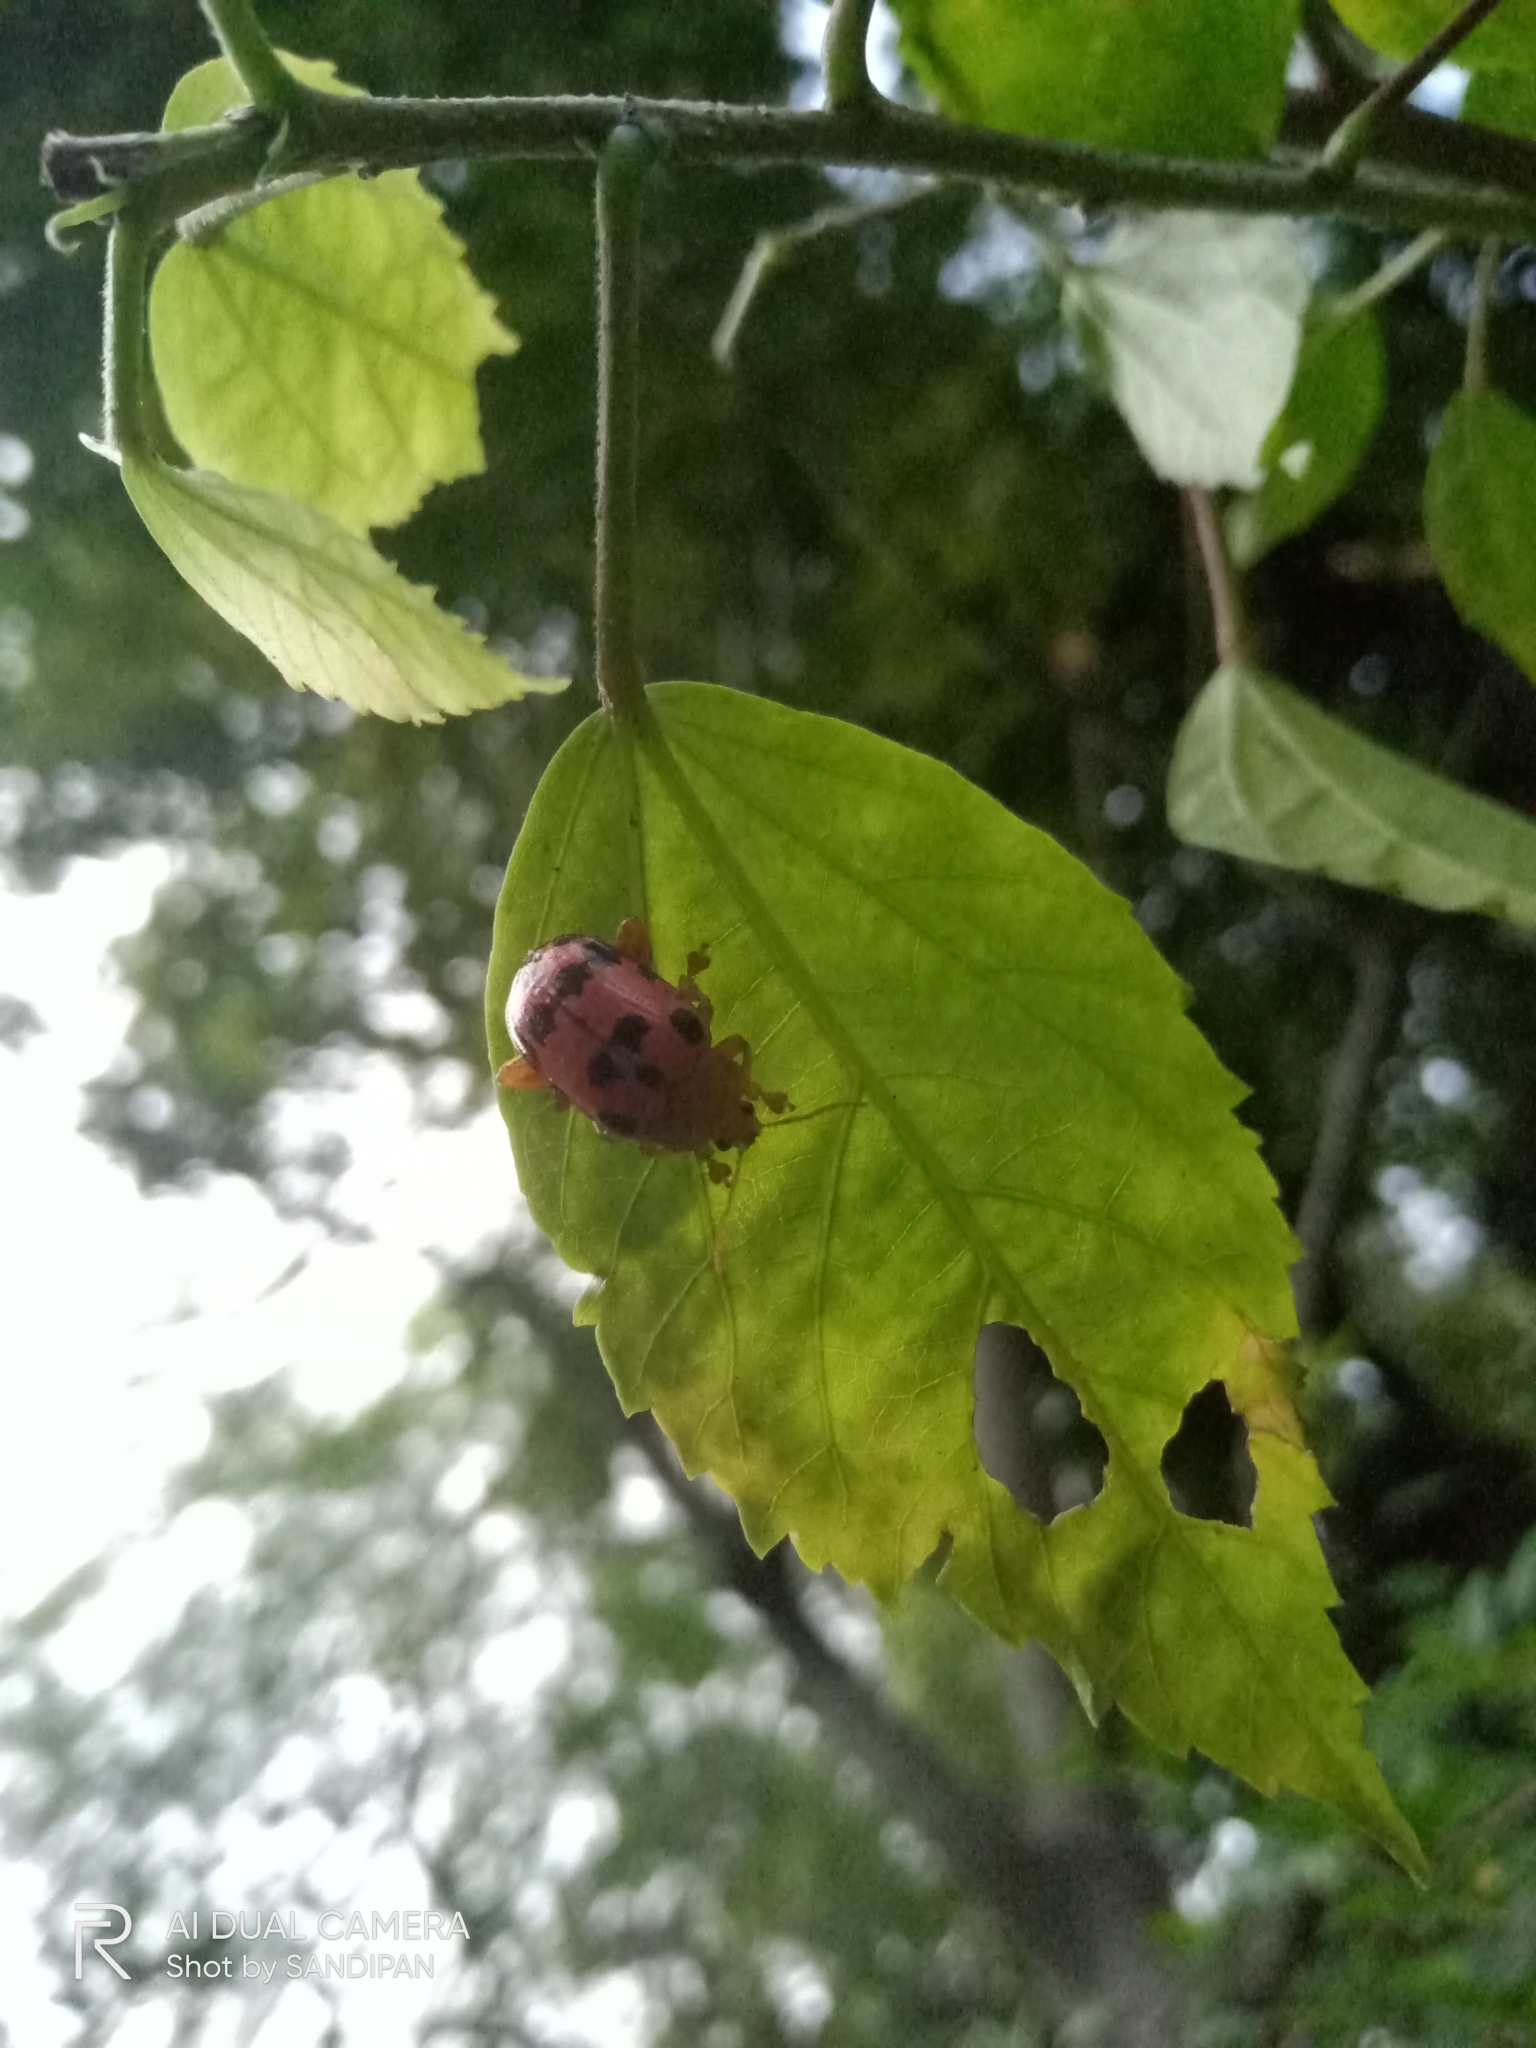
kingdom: Animalia
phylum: Arthropoda
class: Insecta
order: Coleoptera
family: Chrysomelidae
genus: Podontia
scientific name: Podontia
